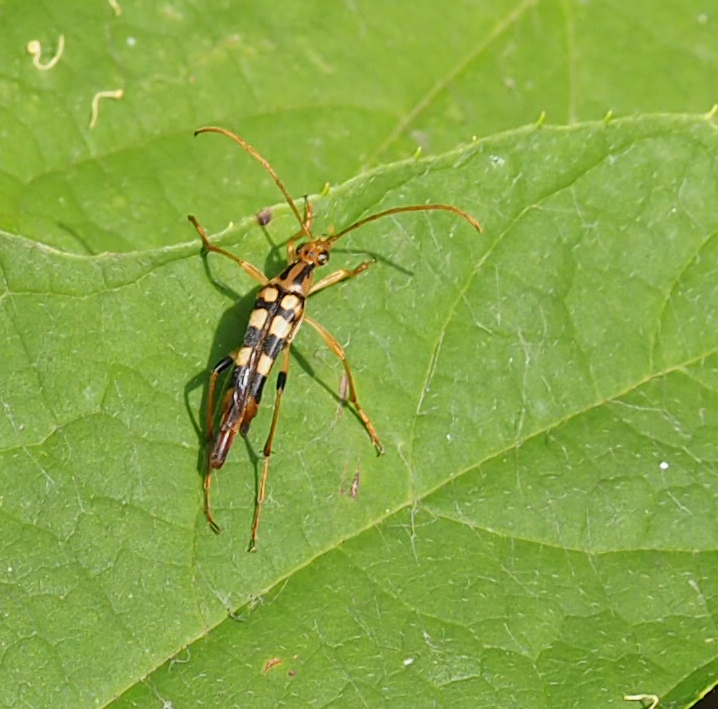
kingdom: Animalia
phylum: Arthropoda
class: Insecta
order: Coleoptera
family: Cerambycidae
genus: Strangalia
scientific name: Strangalia luteicornis
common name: Yellow-horned flower longhorn beetle
